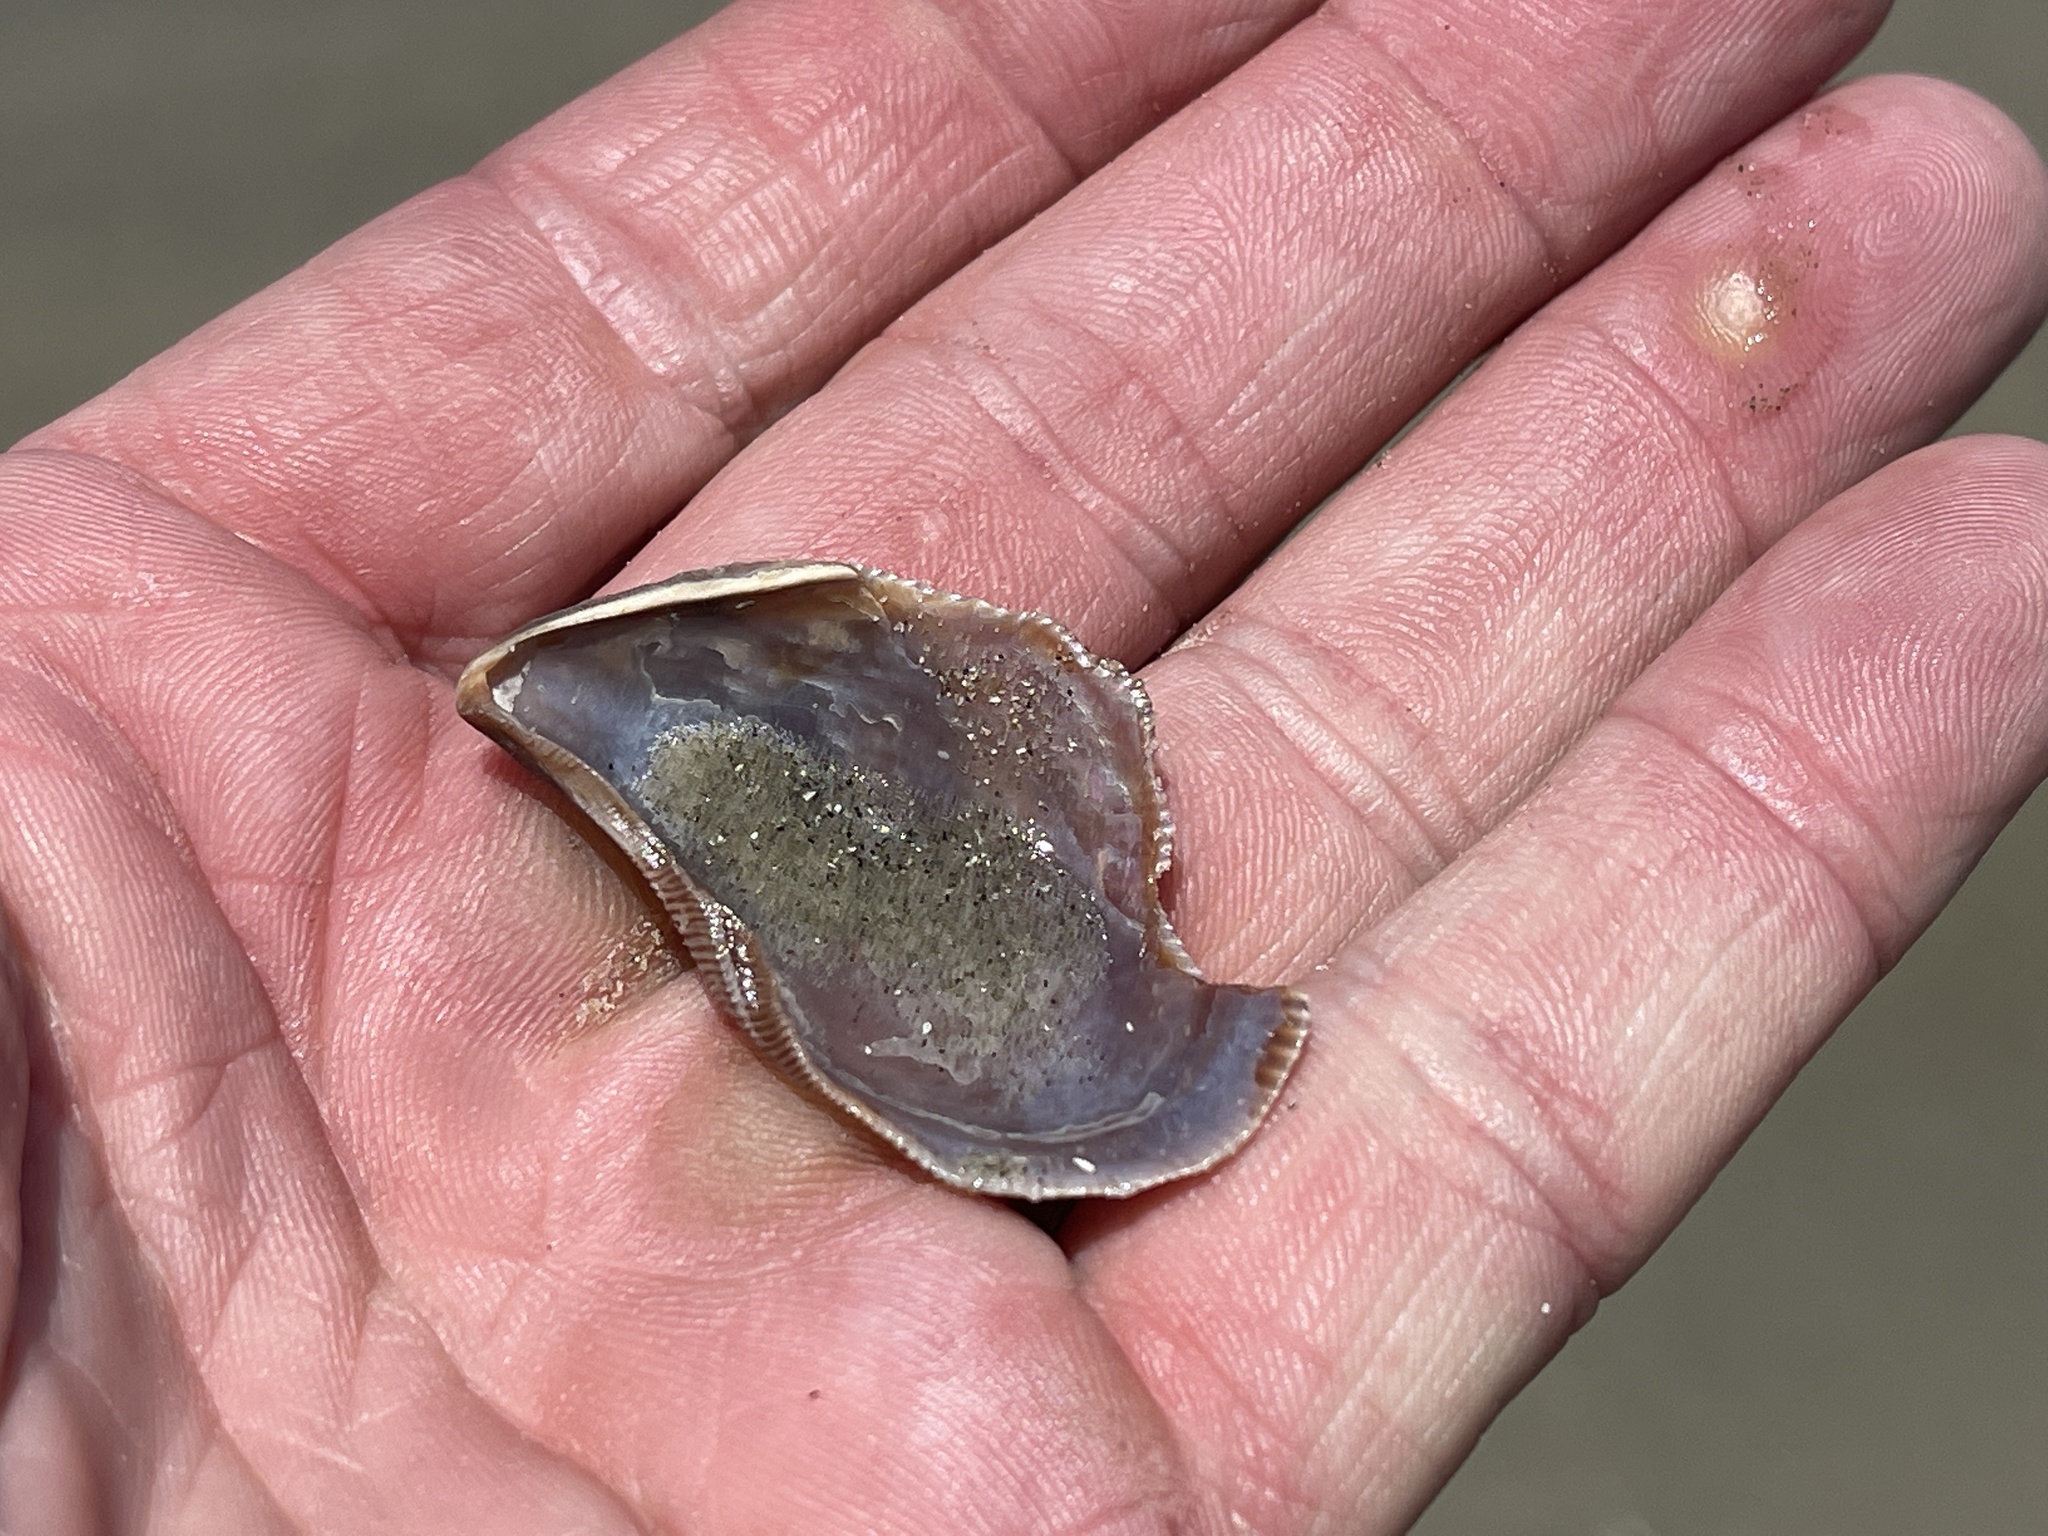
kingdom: Animalia
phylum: Mollusca
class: Bivalvia
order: Mytilida
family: Mytilidae
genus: Ischadium
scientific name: Ischadium recurvum
